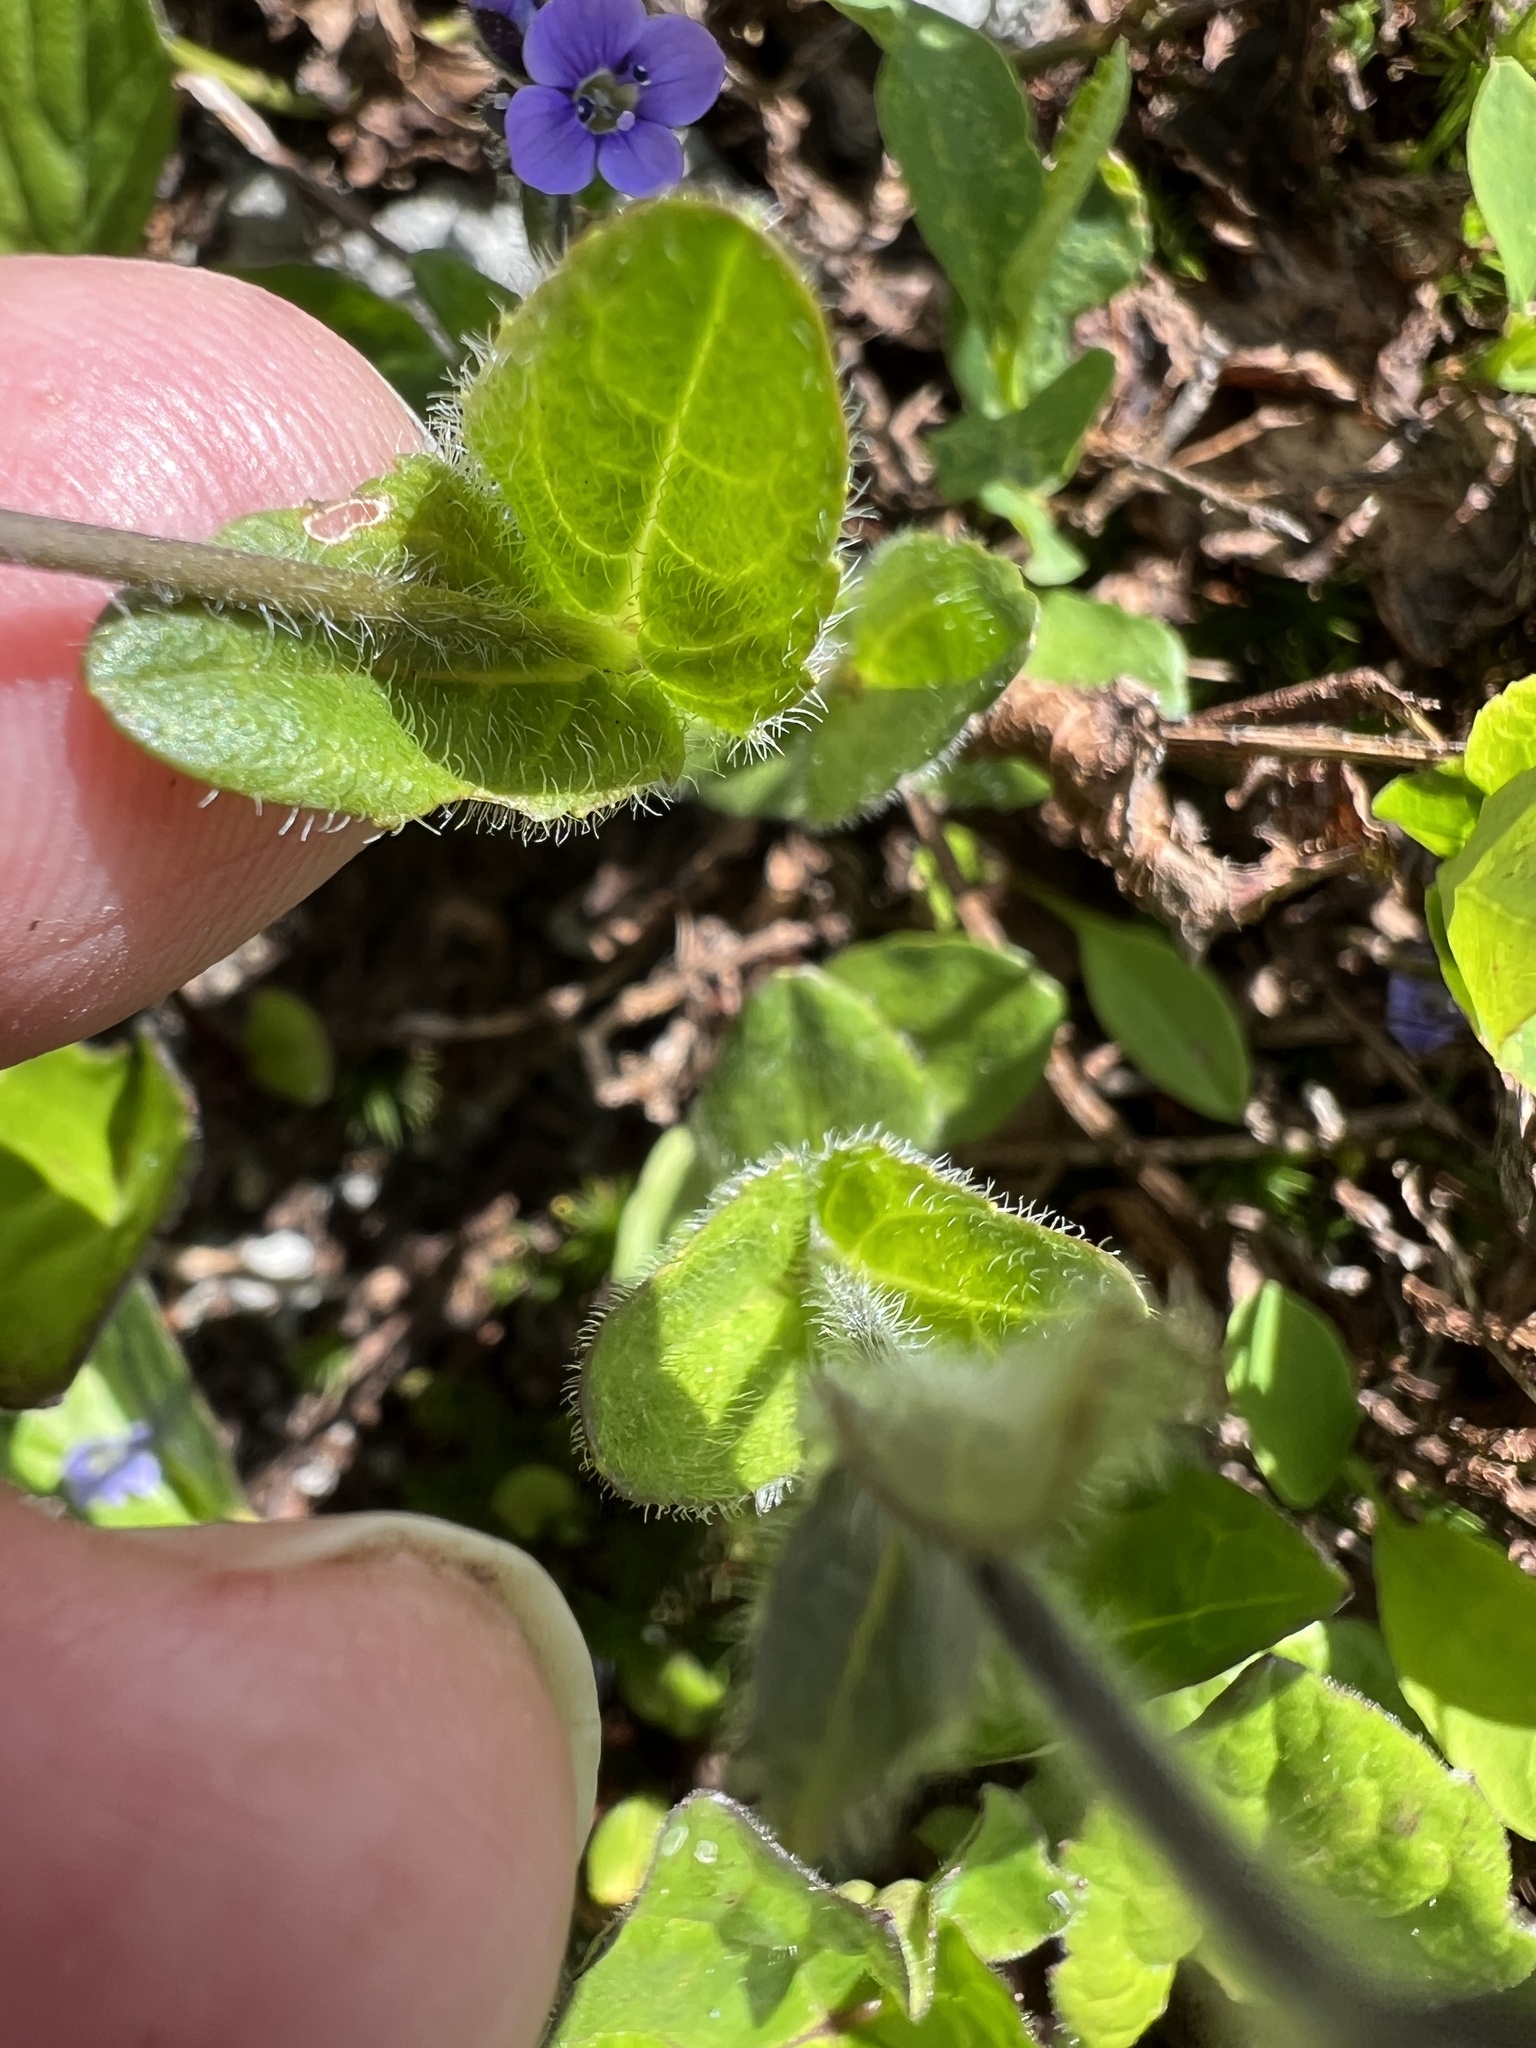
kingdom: Plantae
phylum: Tracheophyta
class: Magnoliopsida
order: Lamiales
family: Plantaginaceae
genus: Veronica
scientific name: Veronica wormskjoldii
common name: American alpine speedwell
